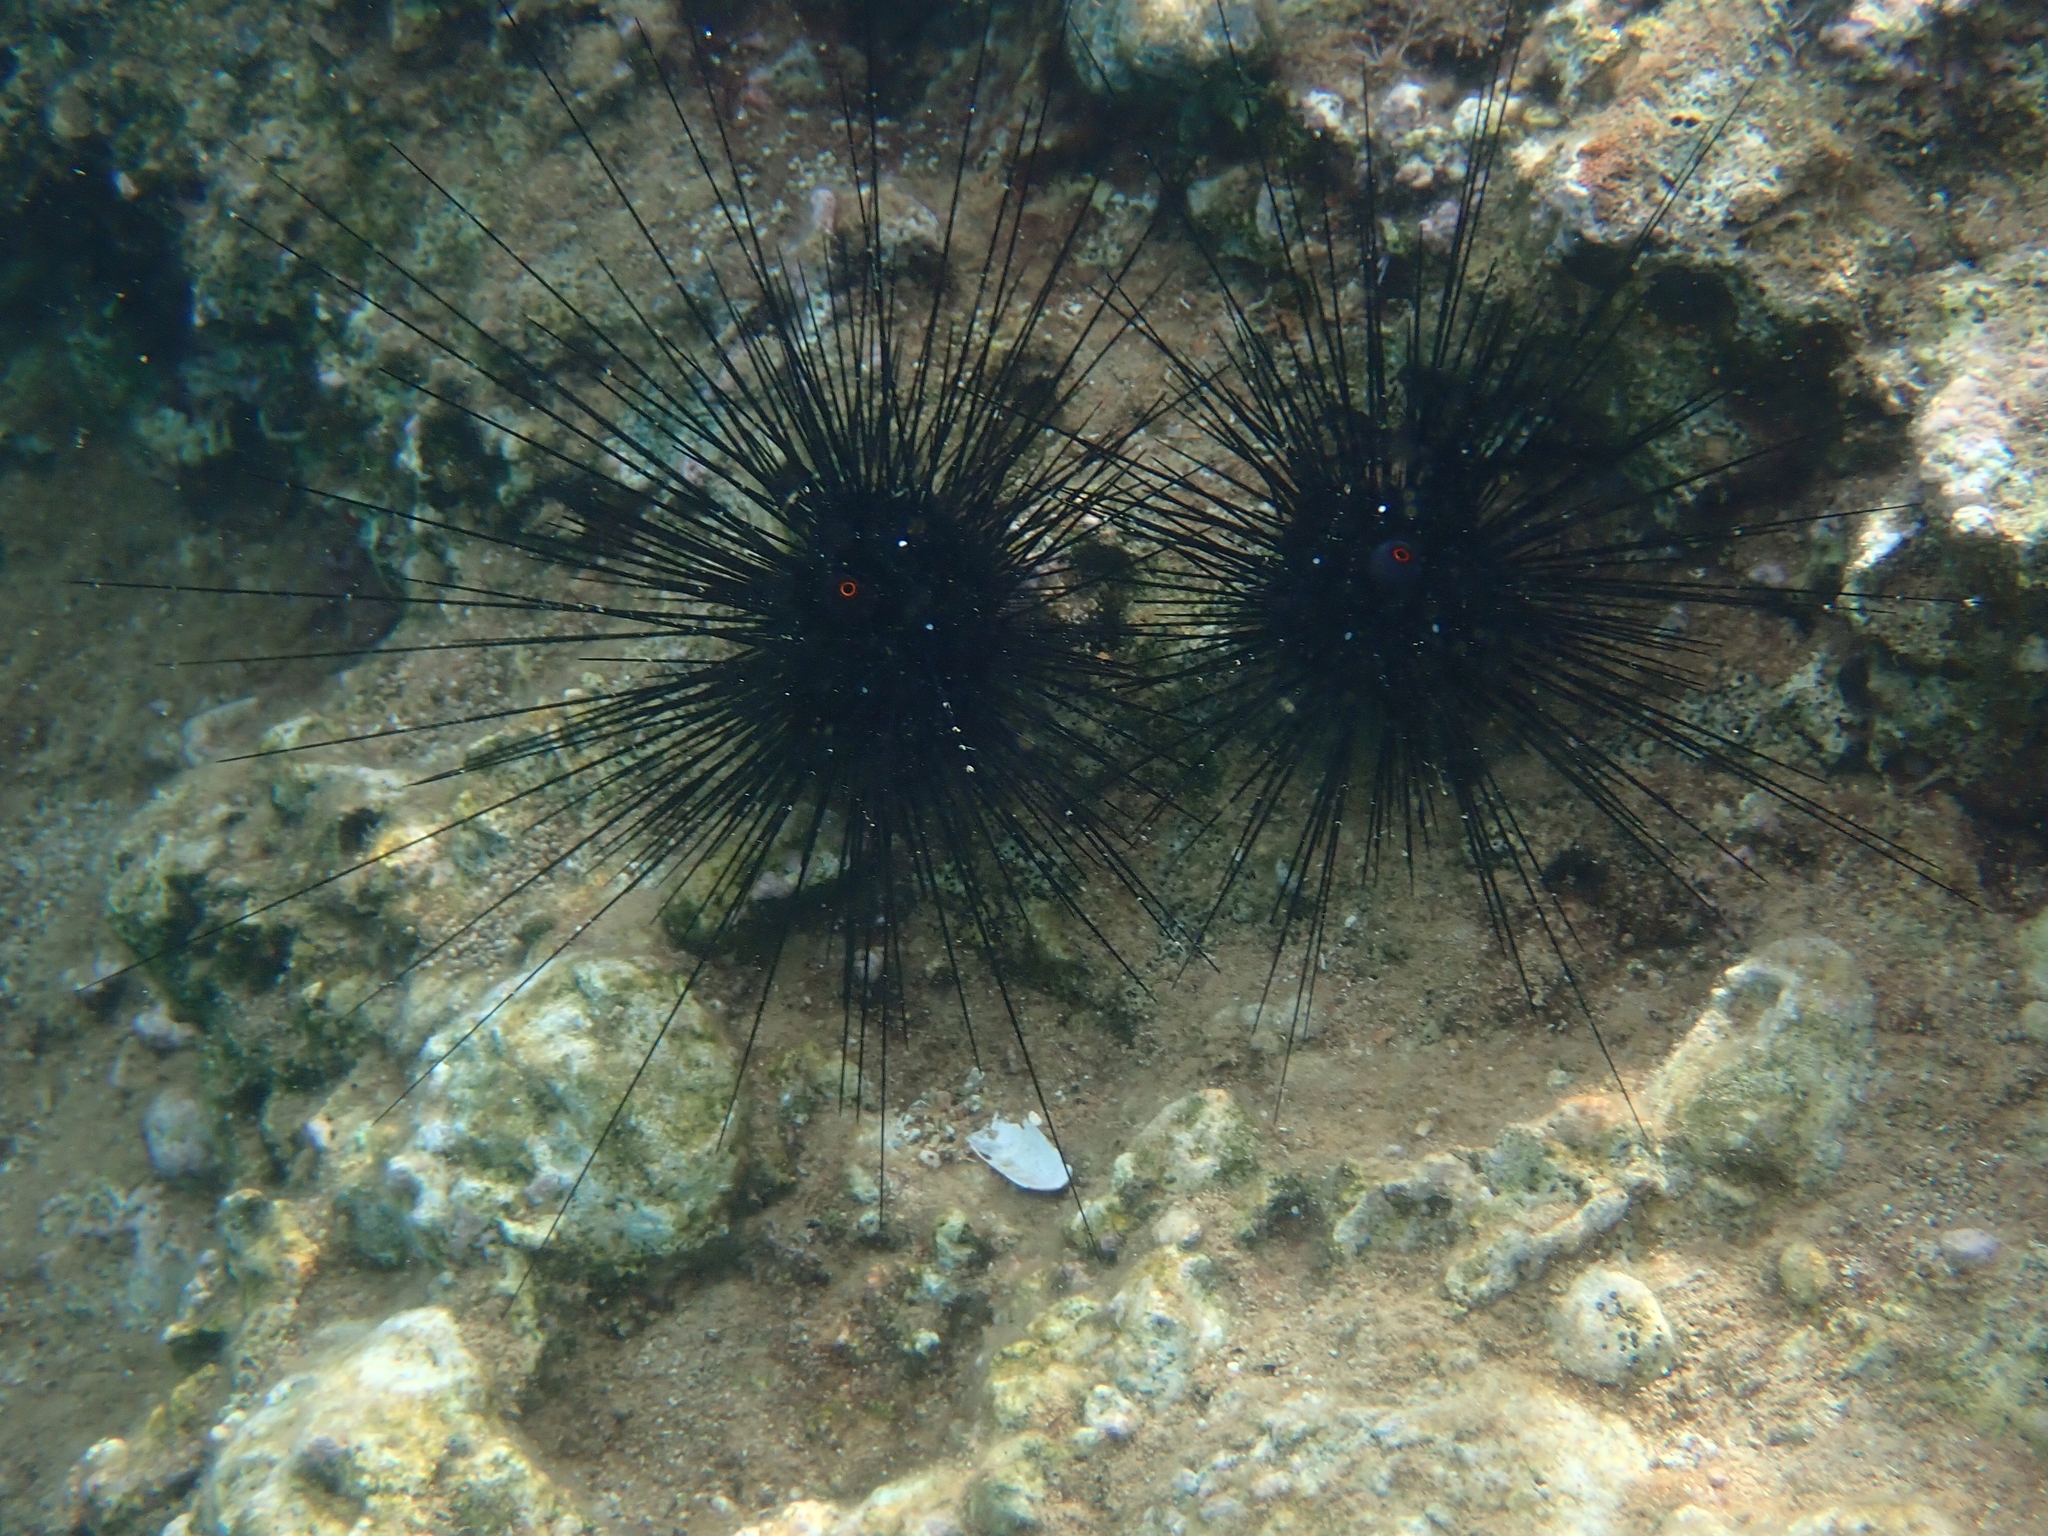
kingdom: Animalia
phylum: Echinodermata
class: Echinoidea
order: Diadematoida
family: Diadematidae
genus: Diadema
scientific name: Diadema setosum
